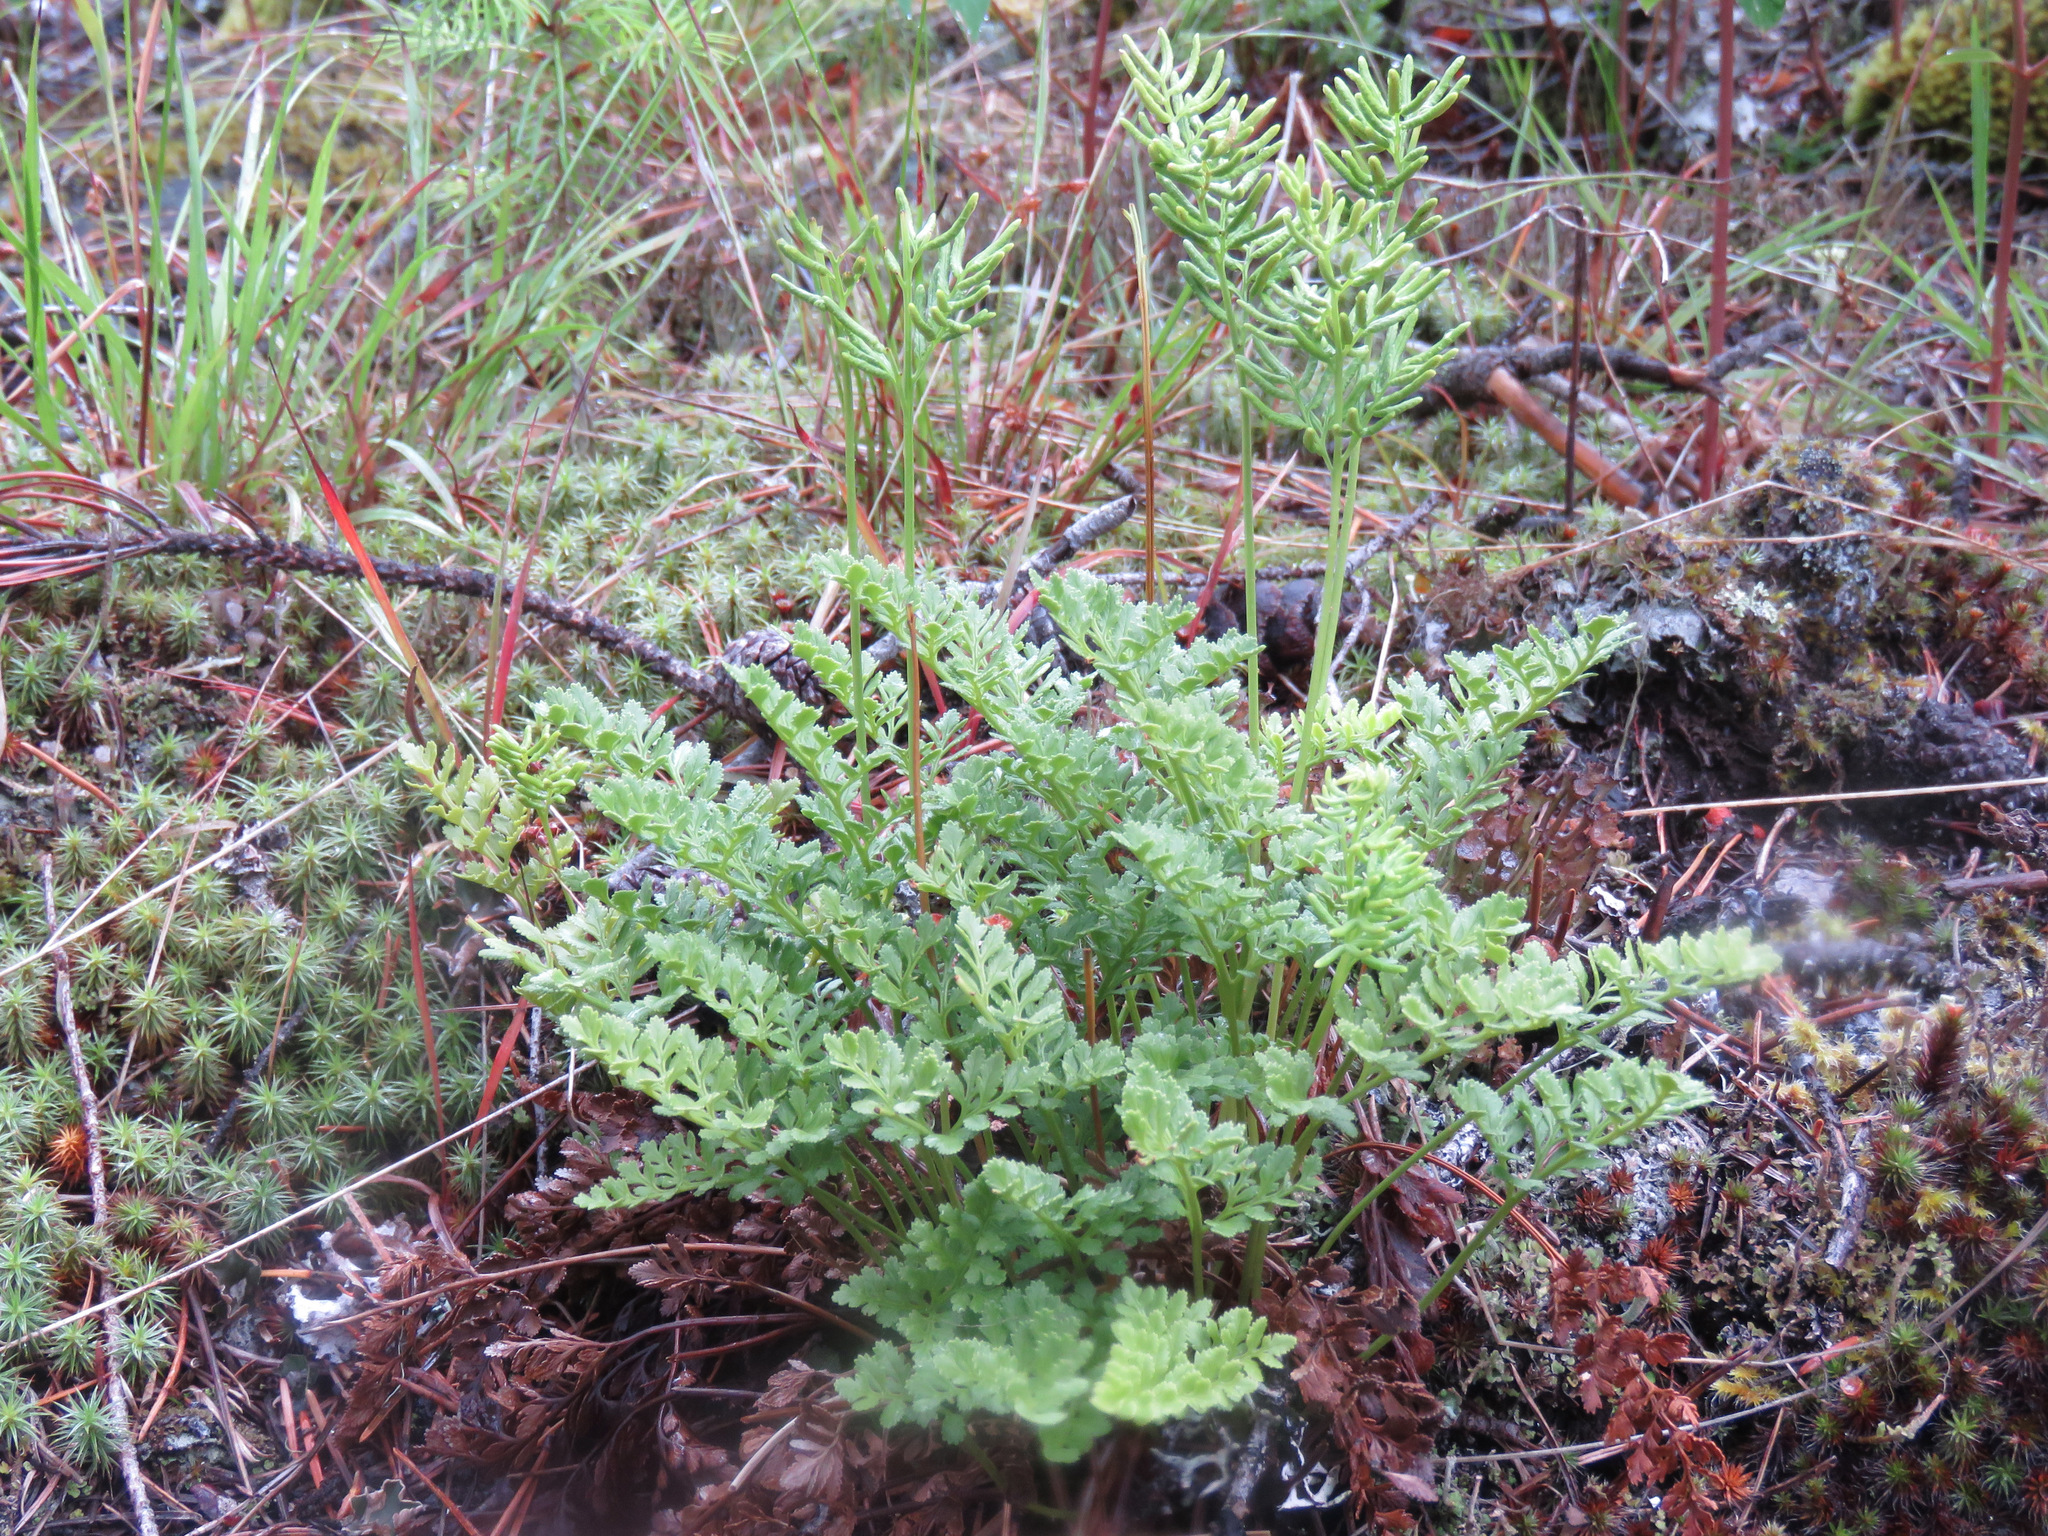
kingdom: Plantae
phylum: Tracheophyta
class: Polypodiopsida
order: Polypodiales
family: Pteridaceae
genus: Cryptogramma
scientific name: Cryptogramma acrostichoides
